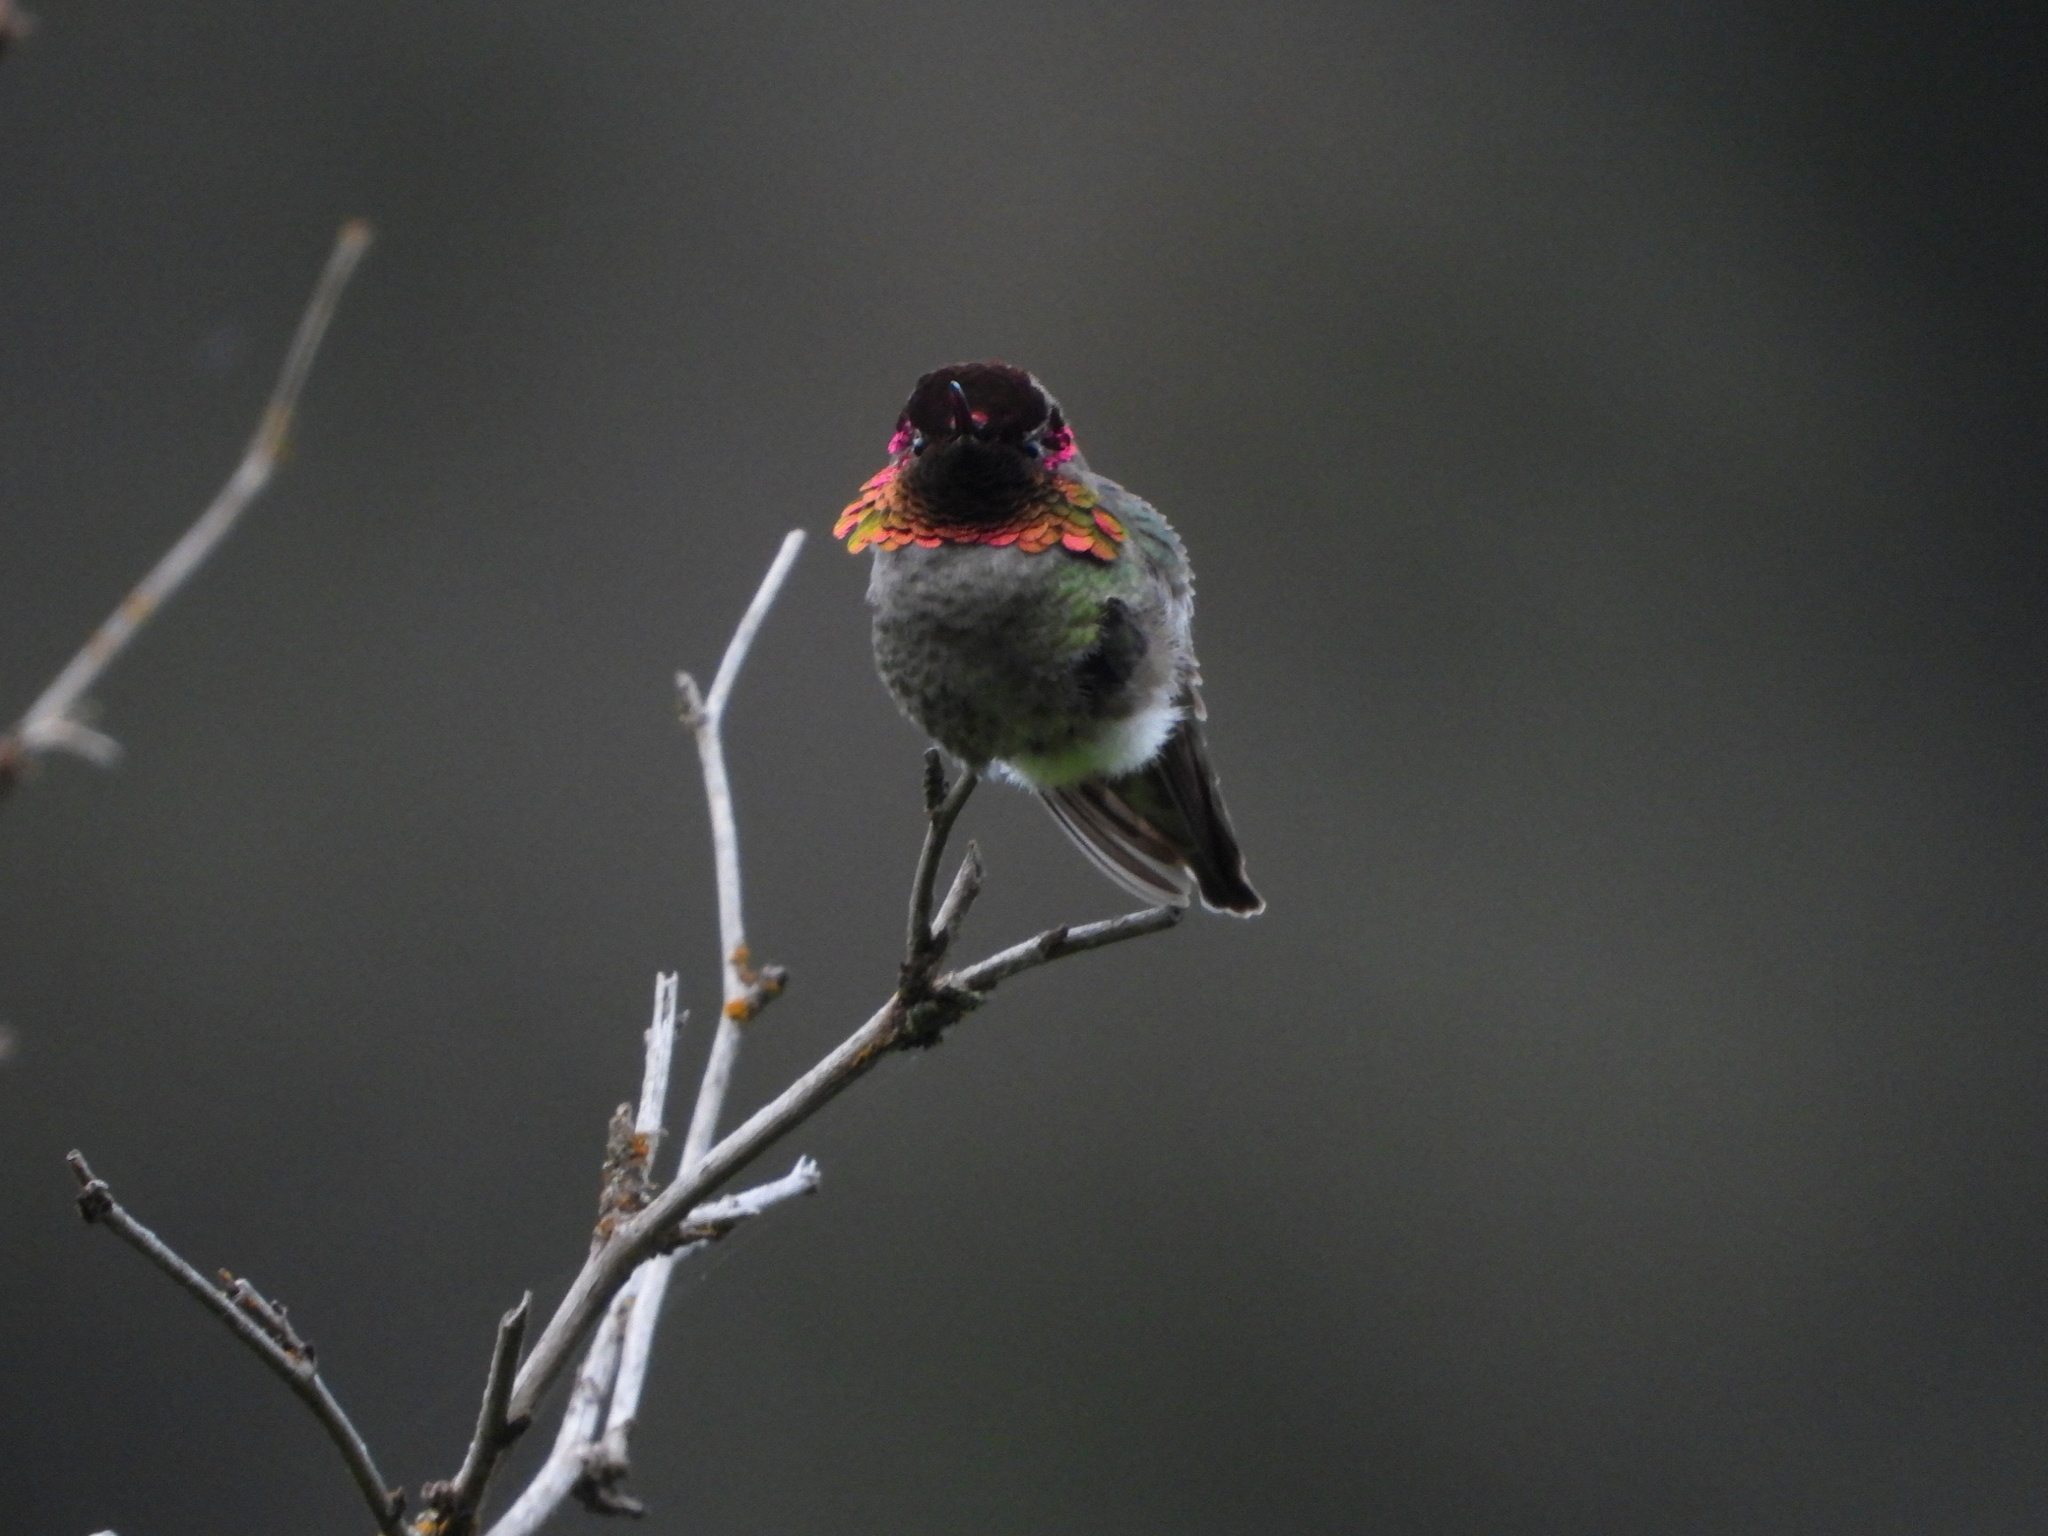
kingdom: Animalia
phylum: Chordata
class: Aves
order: Apodiformes
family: Trochilidae
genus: Calypte
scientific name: Calypte anna
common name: Anna's hummingbird
